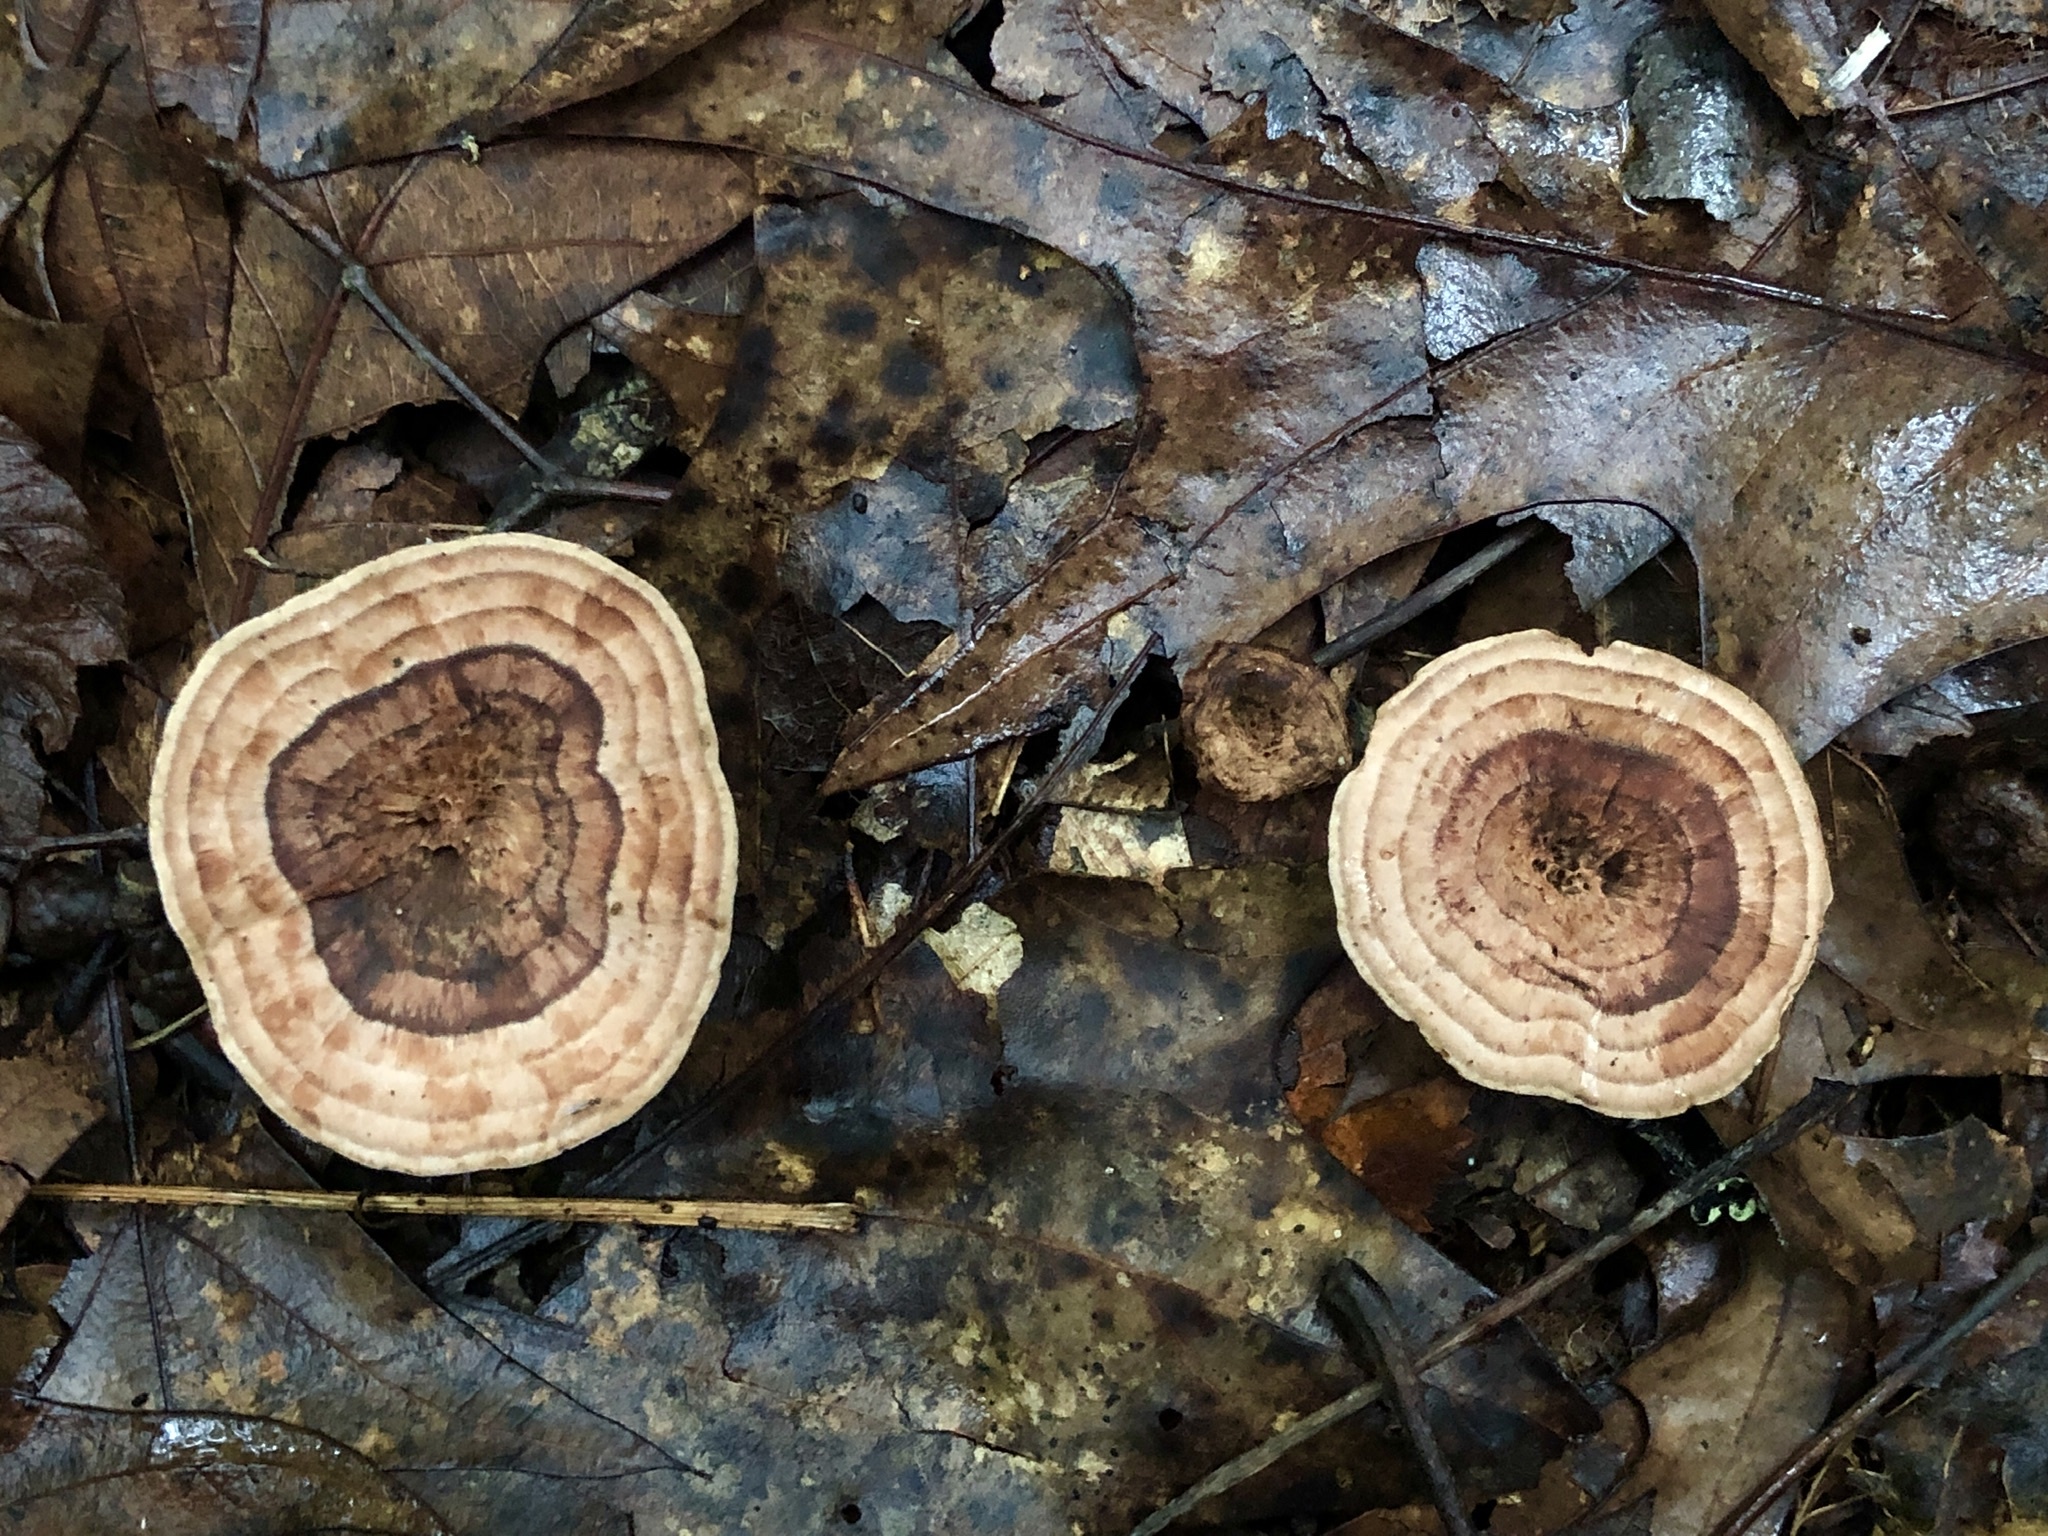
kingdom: Fungi
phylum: Basidiomycota
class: Agaricomycetes
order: Thelephorales
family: Bankeraceae
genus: Hydnellum
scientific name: Hydnellum concrescens
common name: Zoned tooth
